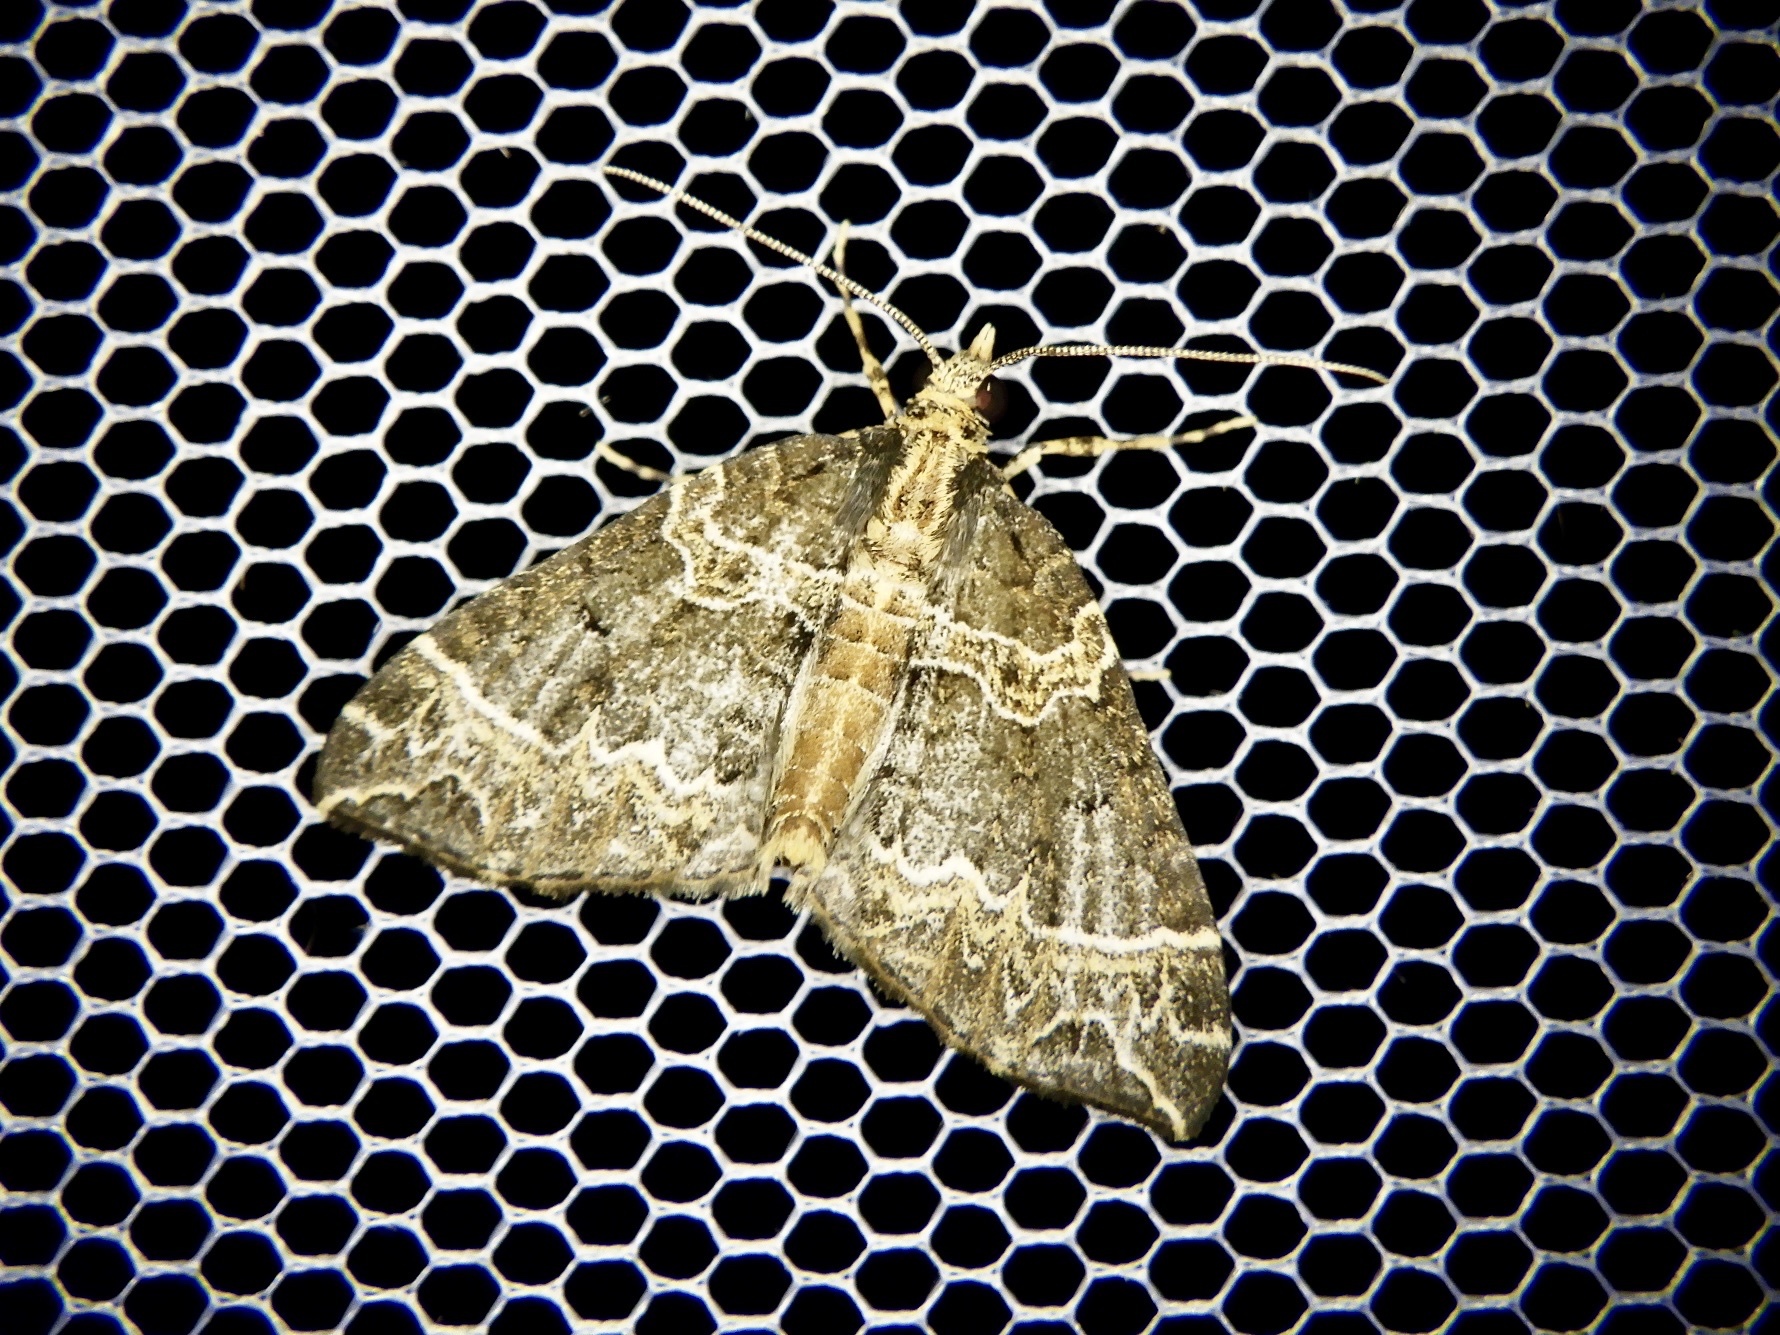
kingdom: Animalia
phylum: Arthropoda
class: Insecta
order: Lepidoptera
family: Geometridae
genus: Ecliptopera
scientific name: Ecliptopera umbrosaria
